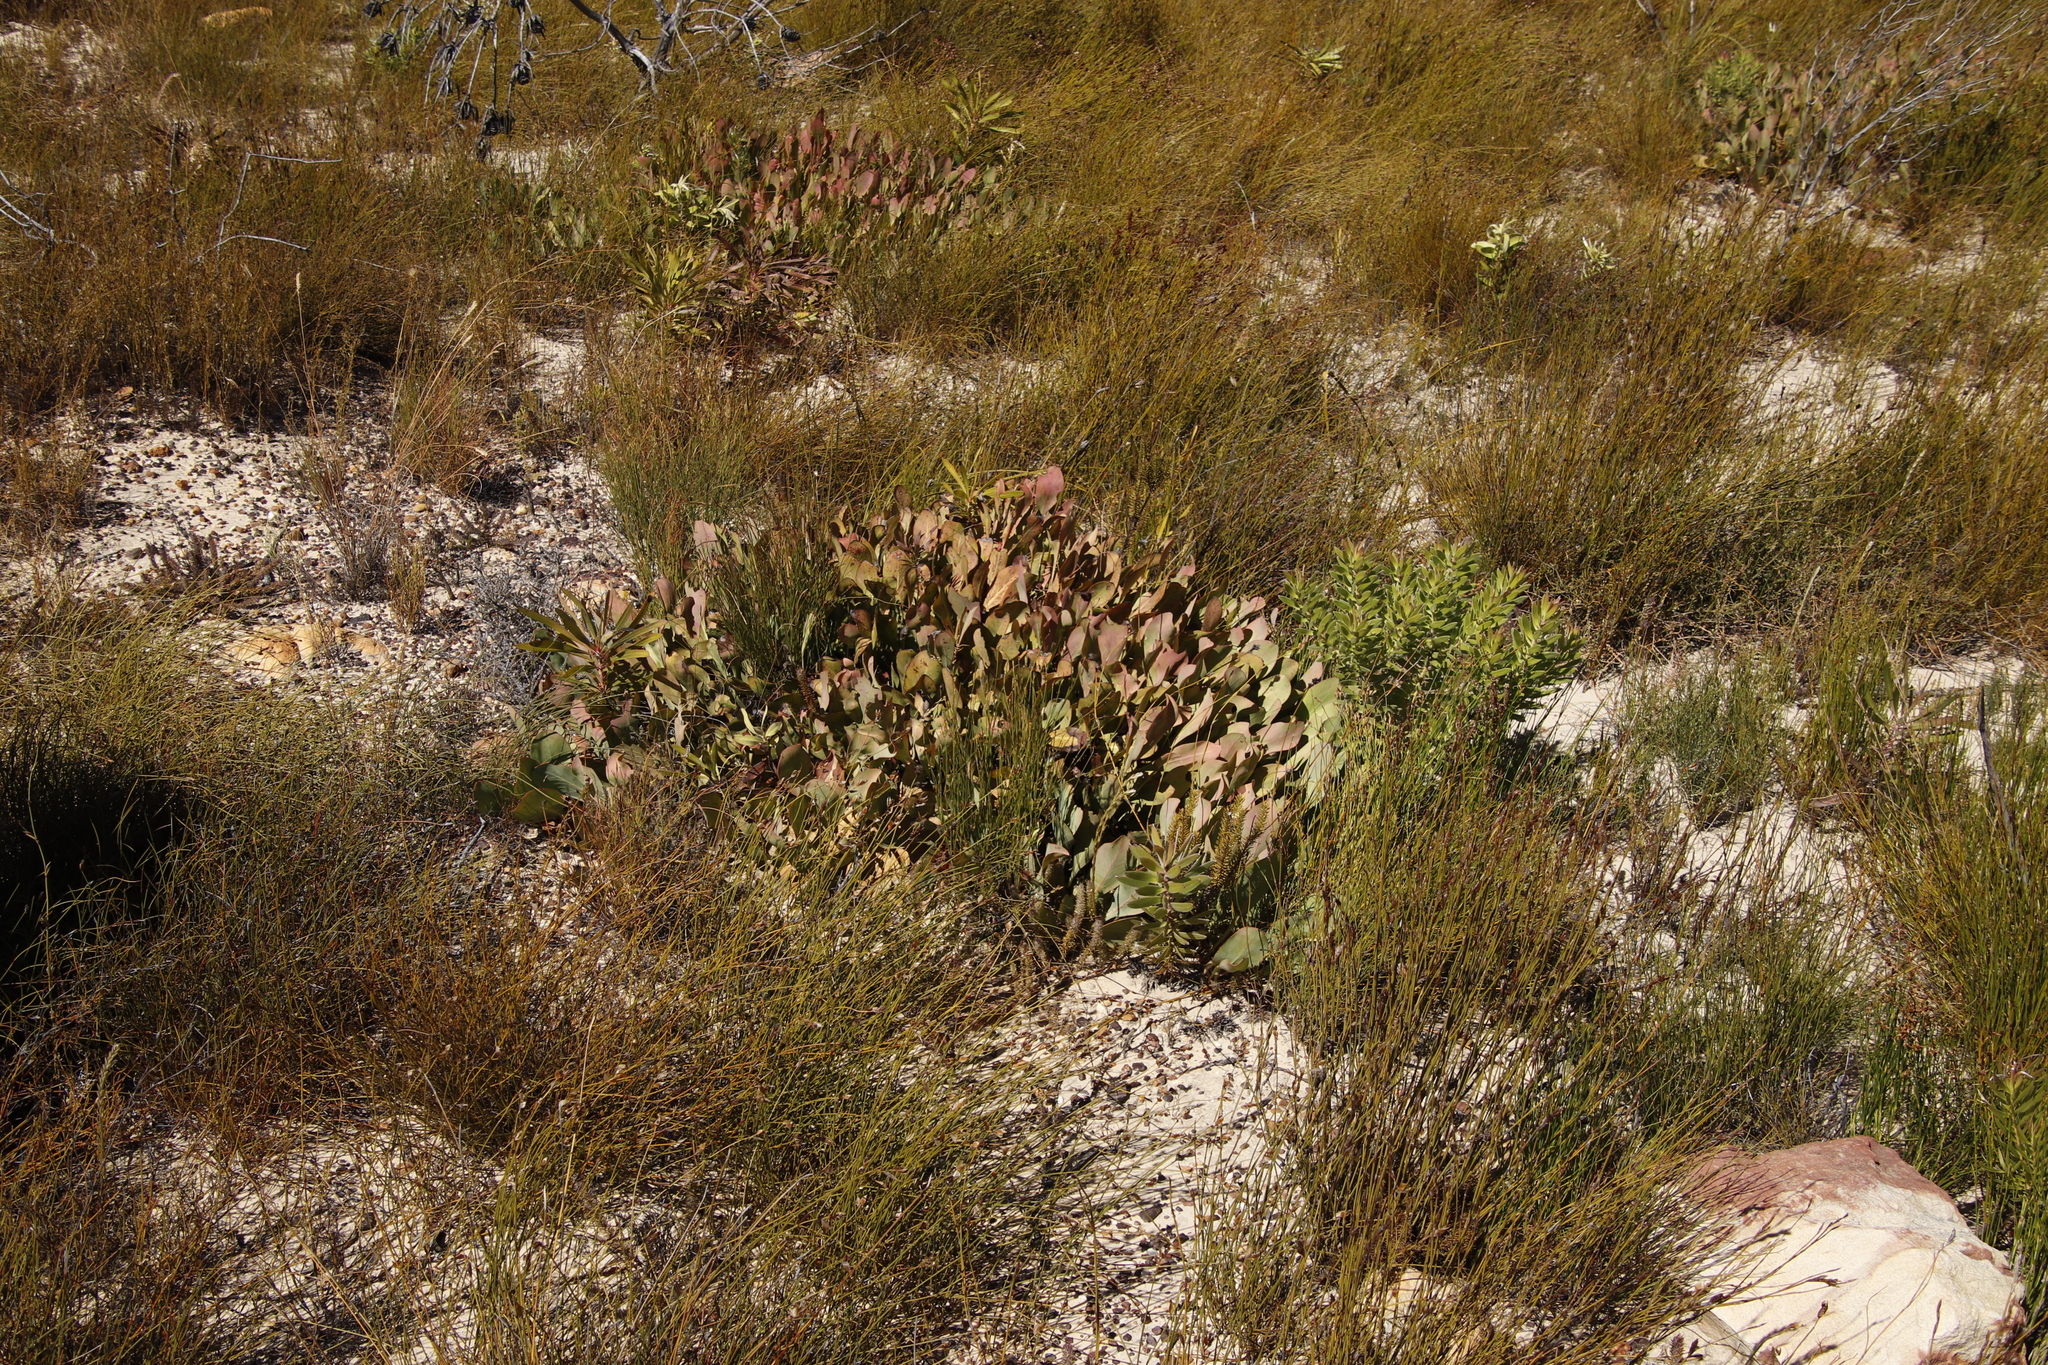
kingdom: Plantae
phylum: Tracheophyta
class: Magnoliopsida
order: Proteales
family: Proteaceae
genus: Protea
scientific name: Protea acaulos
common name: Common ground sugarbush
